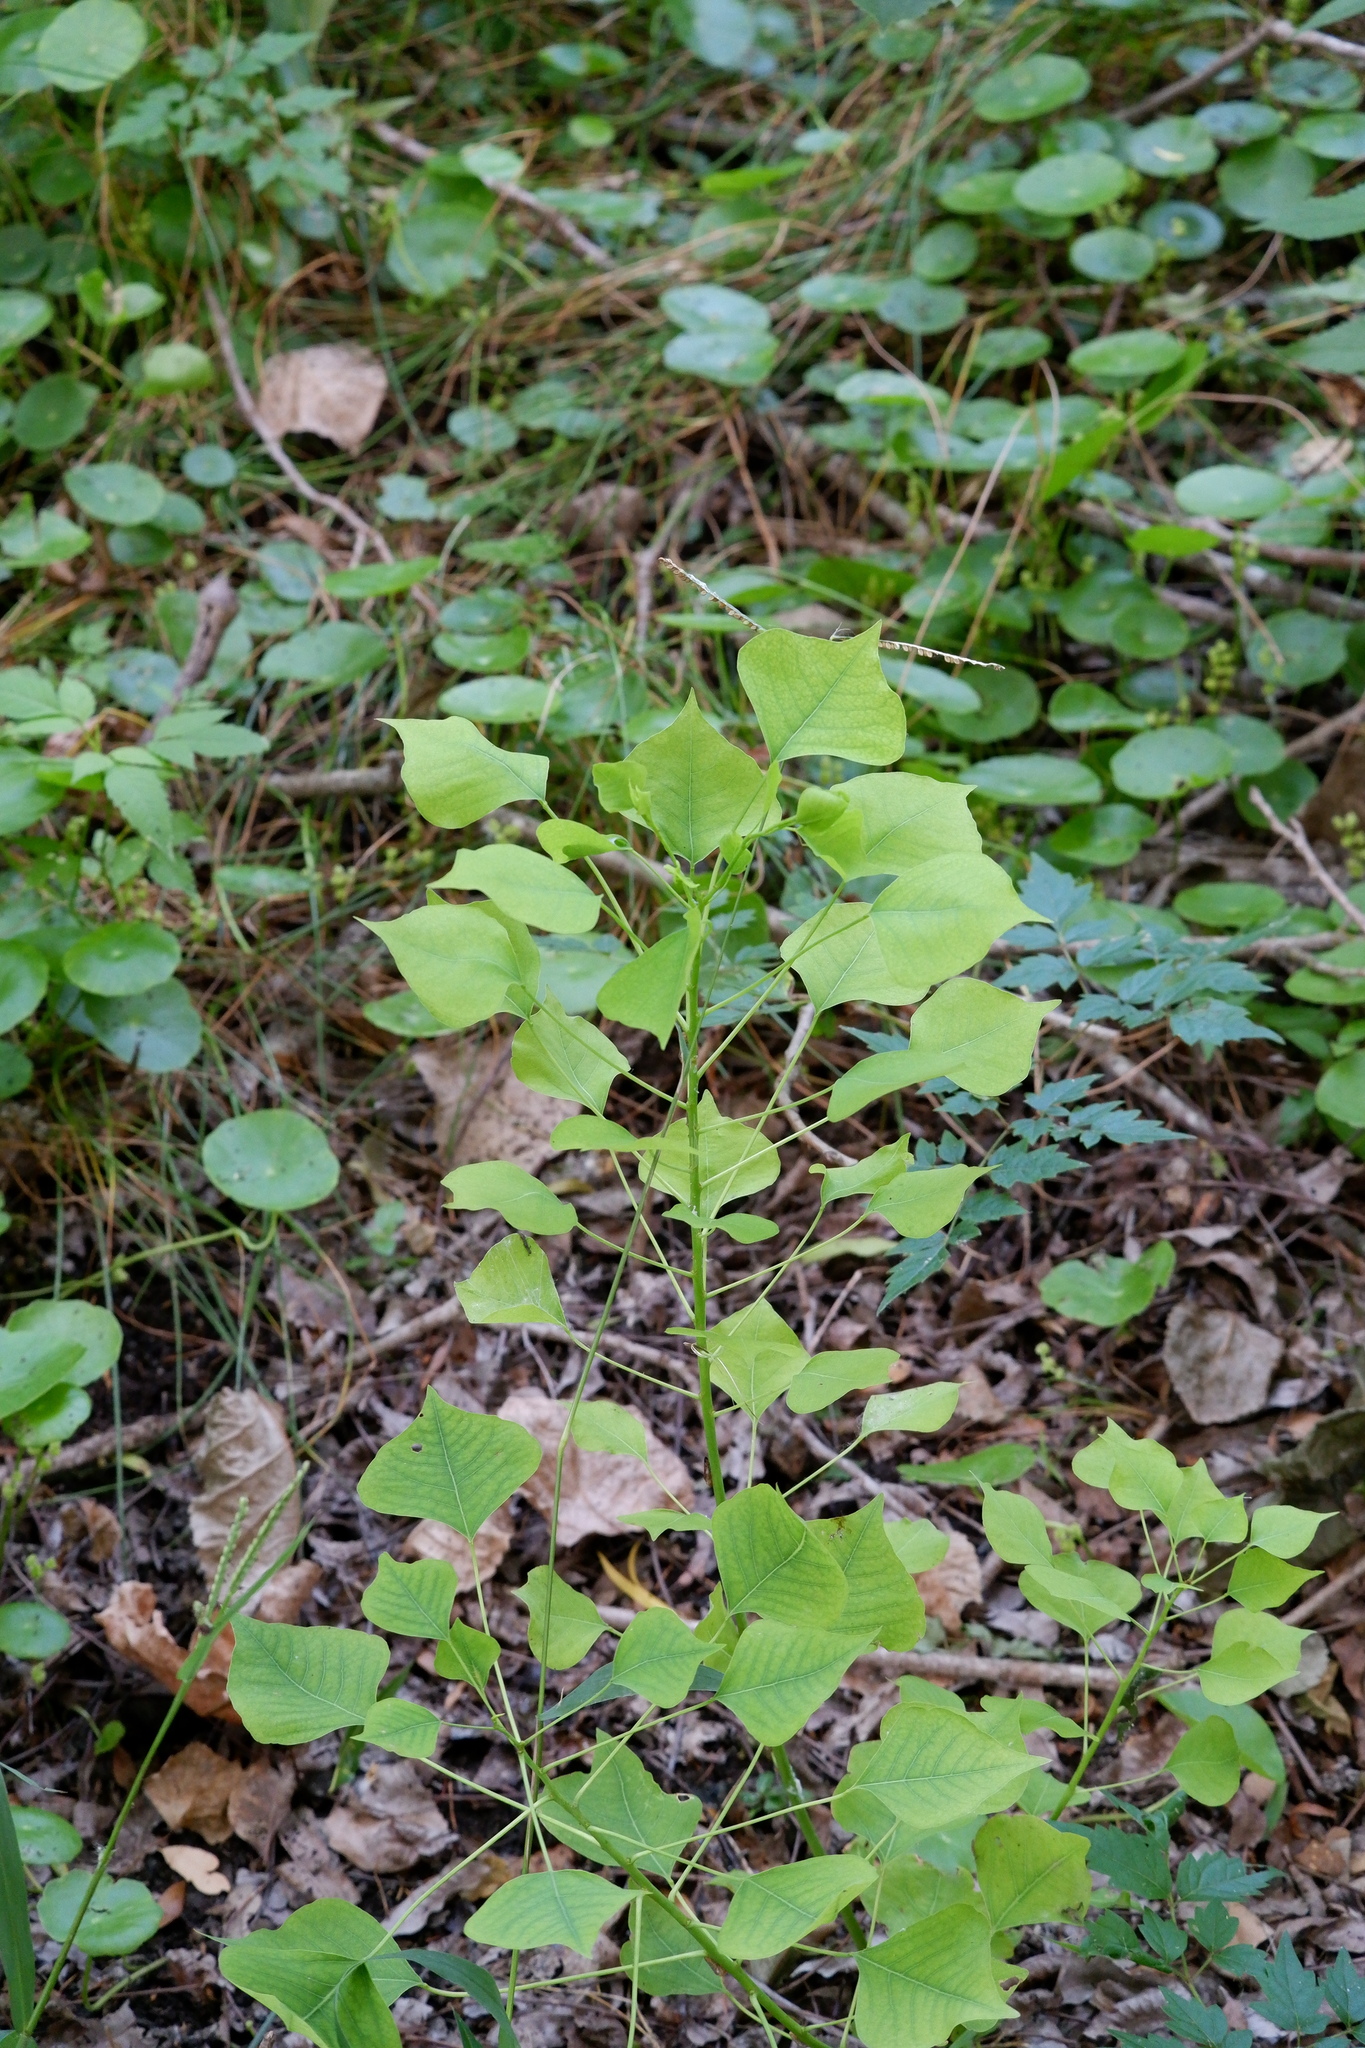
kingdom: Plantae
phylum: Tracheophyta
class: Magnoliopsida
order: Malpighiales
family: Euphorbiaceae
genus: Triadica
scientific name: Triadica sebifera
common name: Chinese tallow
